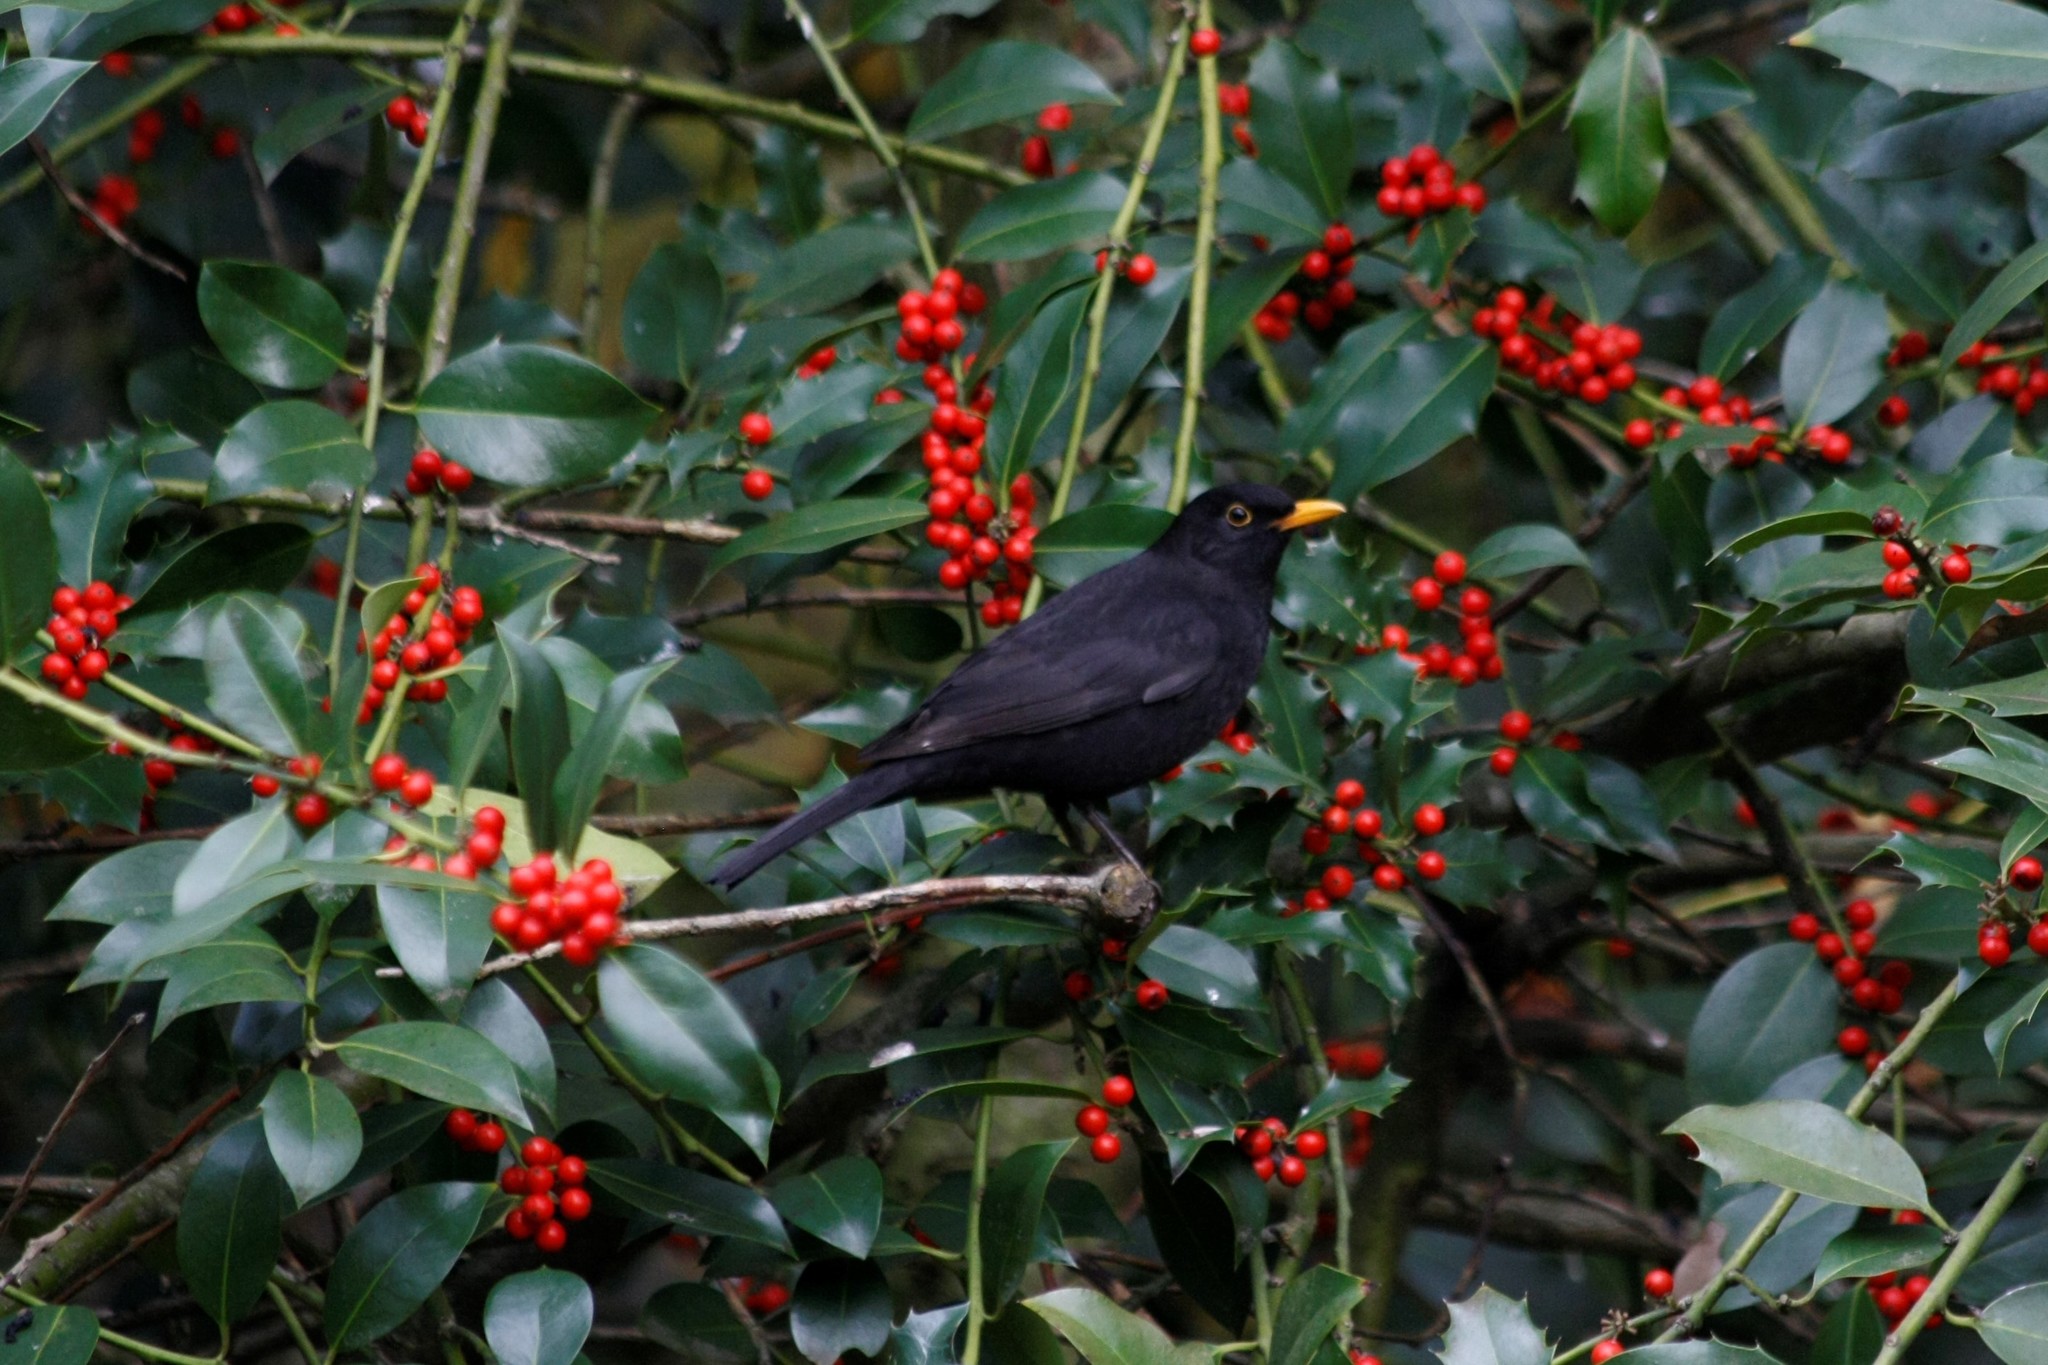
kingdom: Animalia
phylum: Chordata
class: Aves
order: Passeriformes
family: Turdidae
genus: Turdus
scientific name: Turdus merula
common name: Common blackbird
